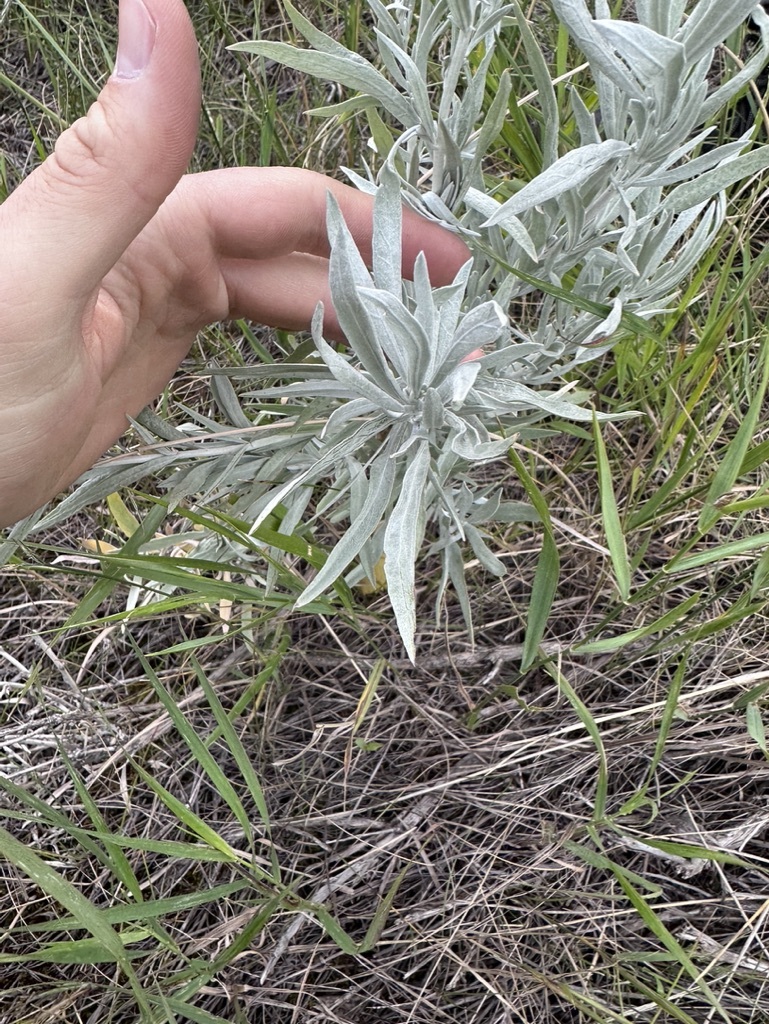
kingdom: Plantae
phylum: Tracheophyta
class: Magnoliopsida
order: Asterales
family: Asteraceae
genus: Artemisia
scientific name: Artemisia cana
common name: Silver sagebrush
